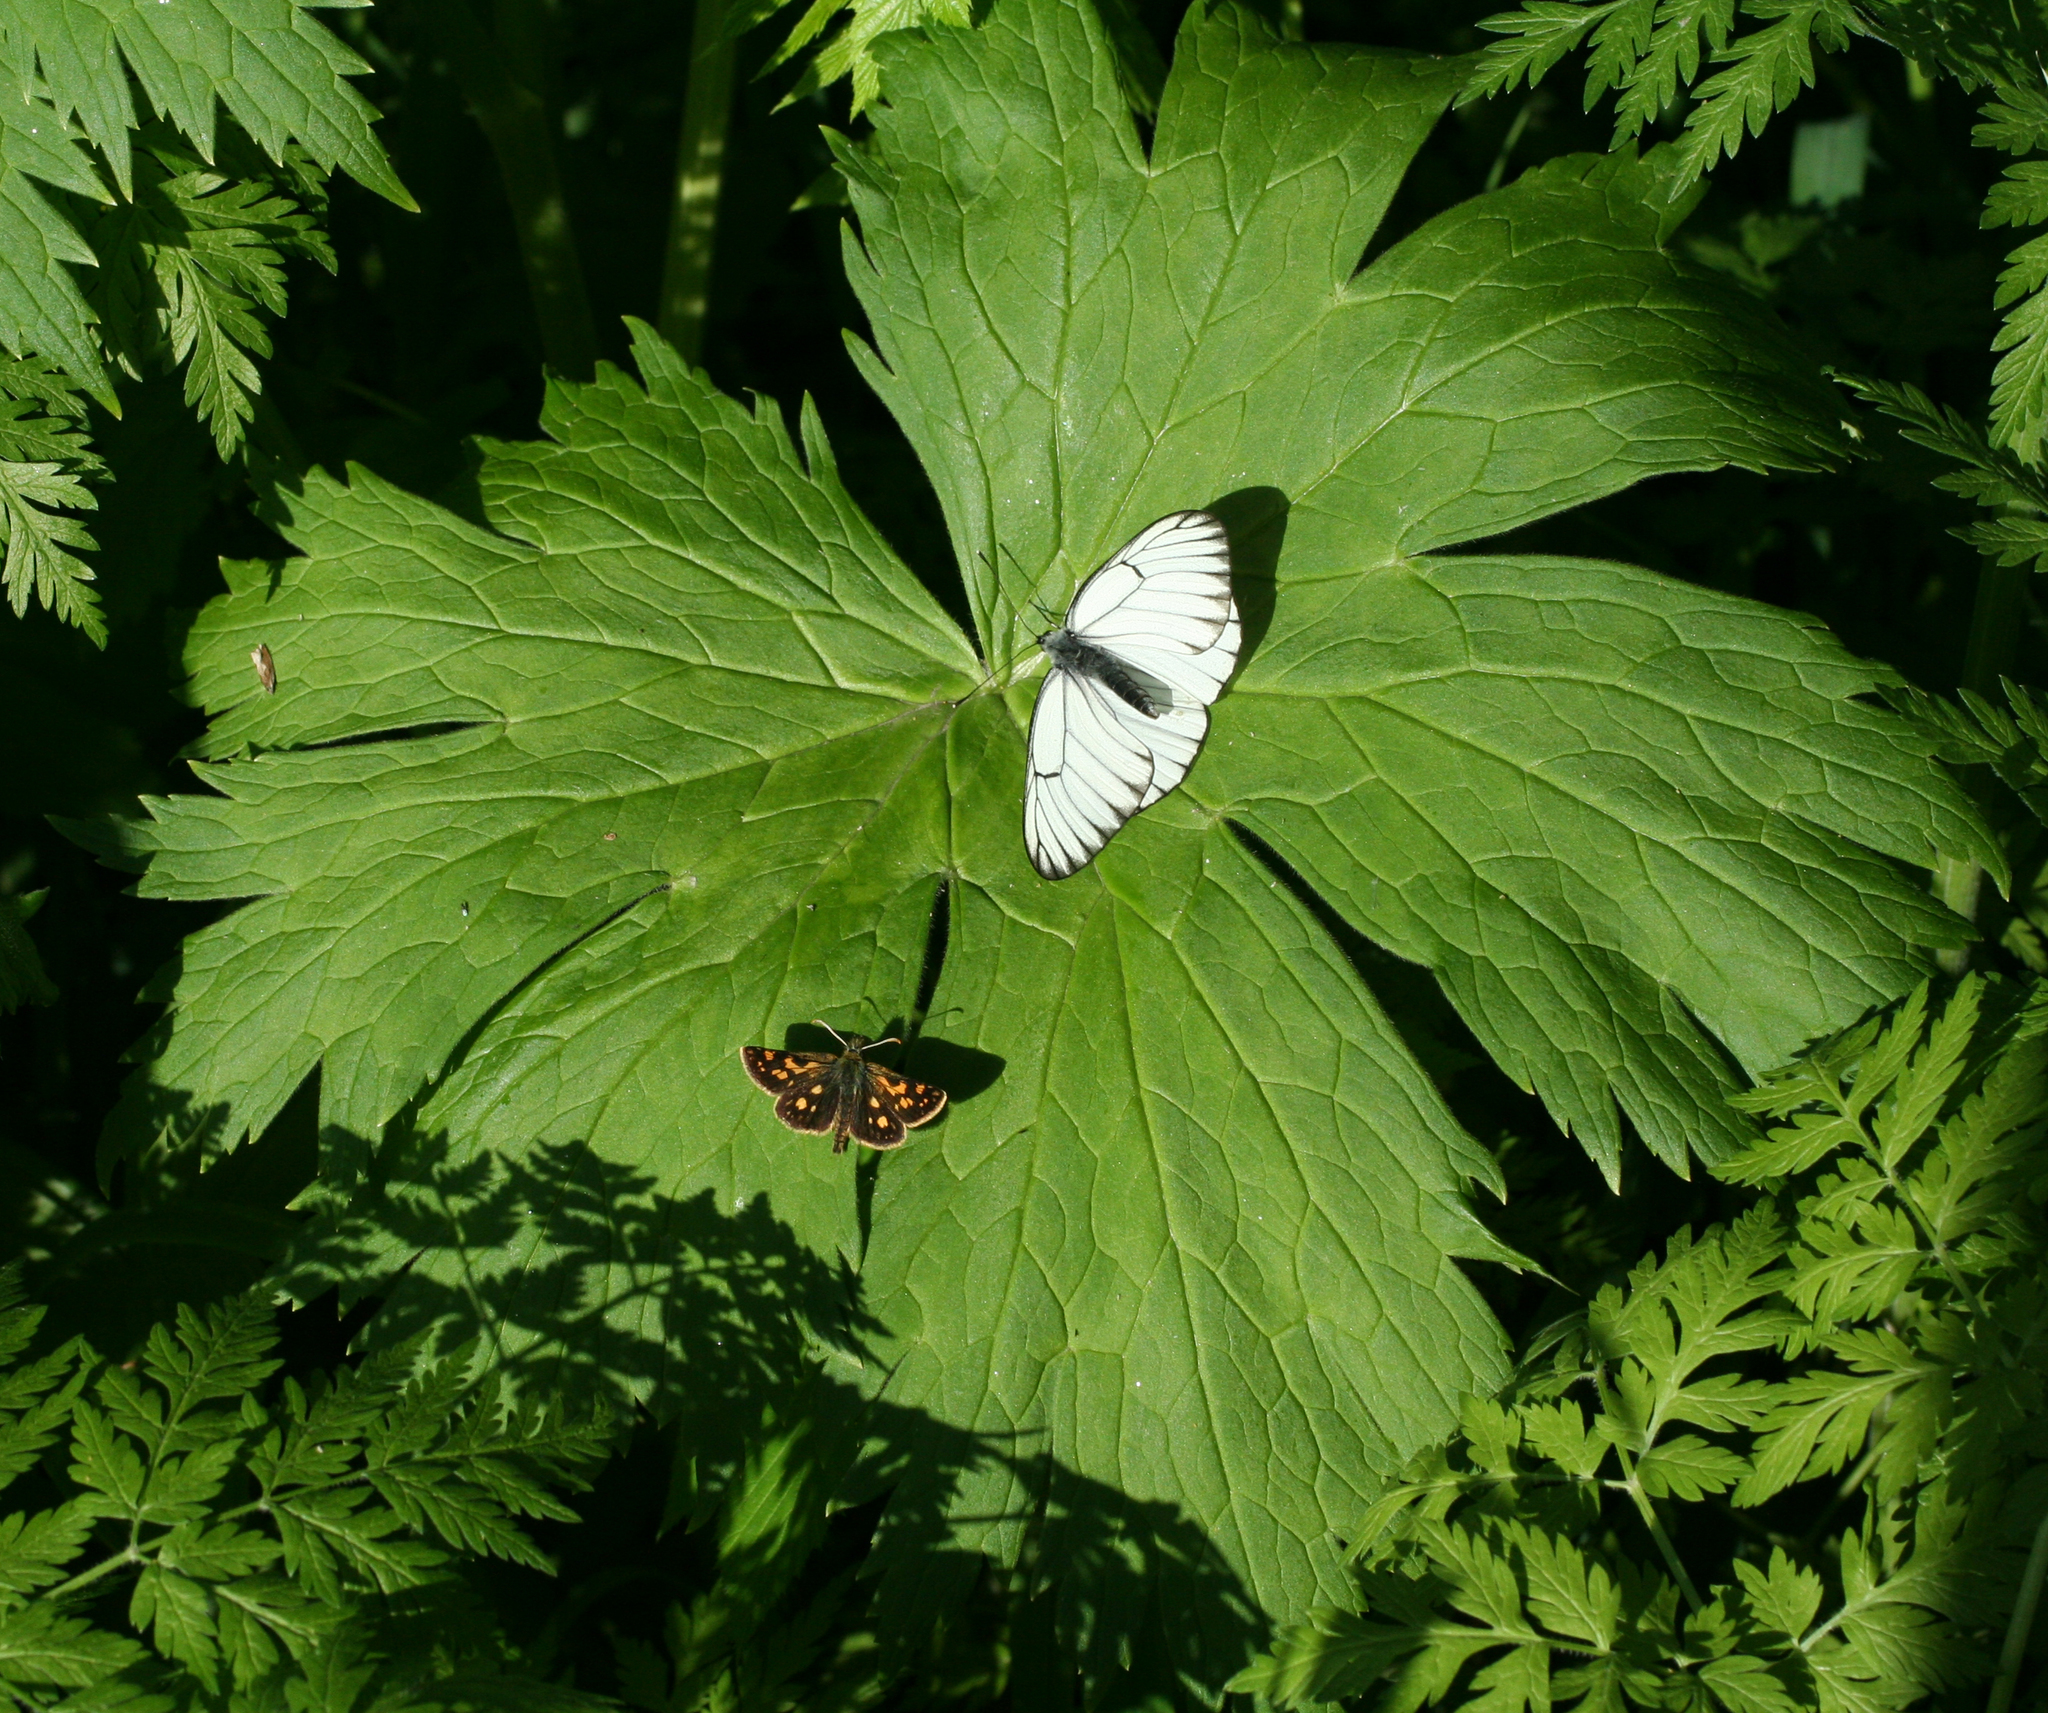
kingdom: Animalia
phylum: Arthropoda
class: Insecta
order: Lepidoptera
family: Pieridae
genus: Aporia
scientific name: Aporia crataegi
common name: Black-veined white
